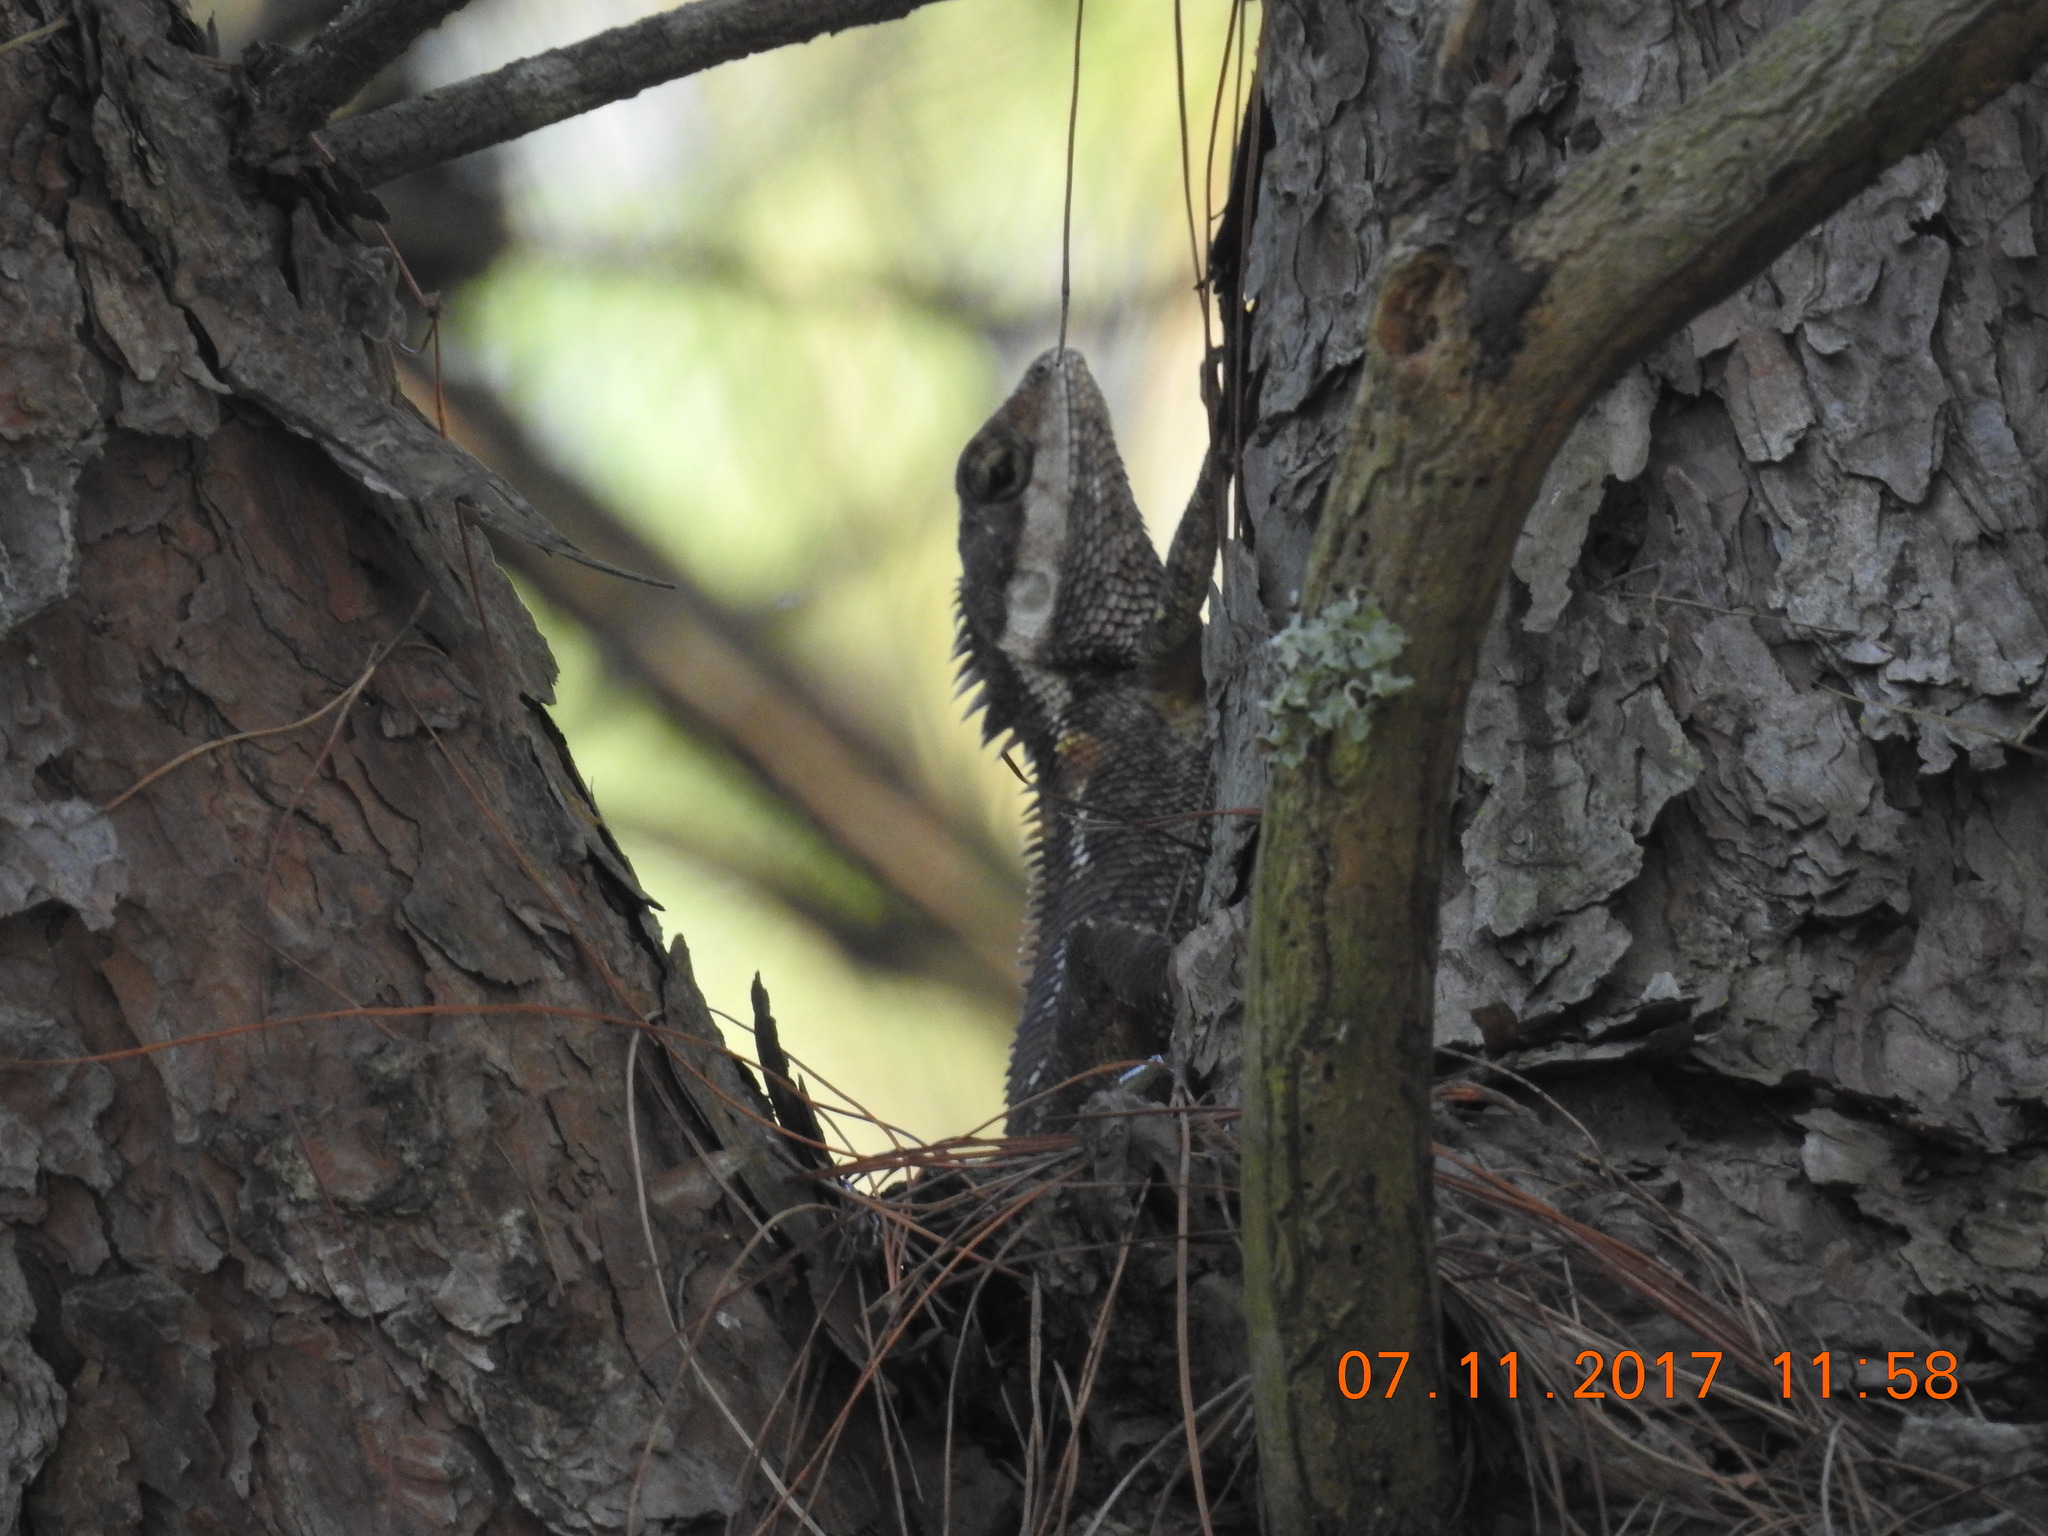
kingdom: Animalia
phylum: Chordata
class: Squamata
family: Agamidae
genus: Calotes
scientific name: Calotes geissleri
